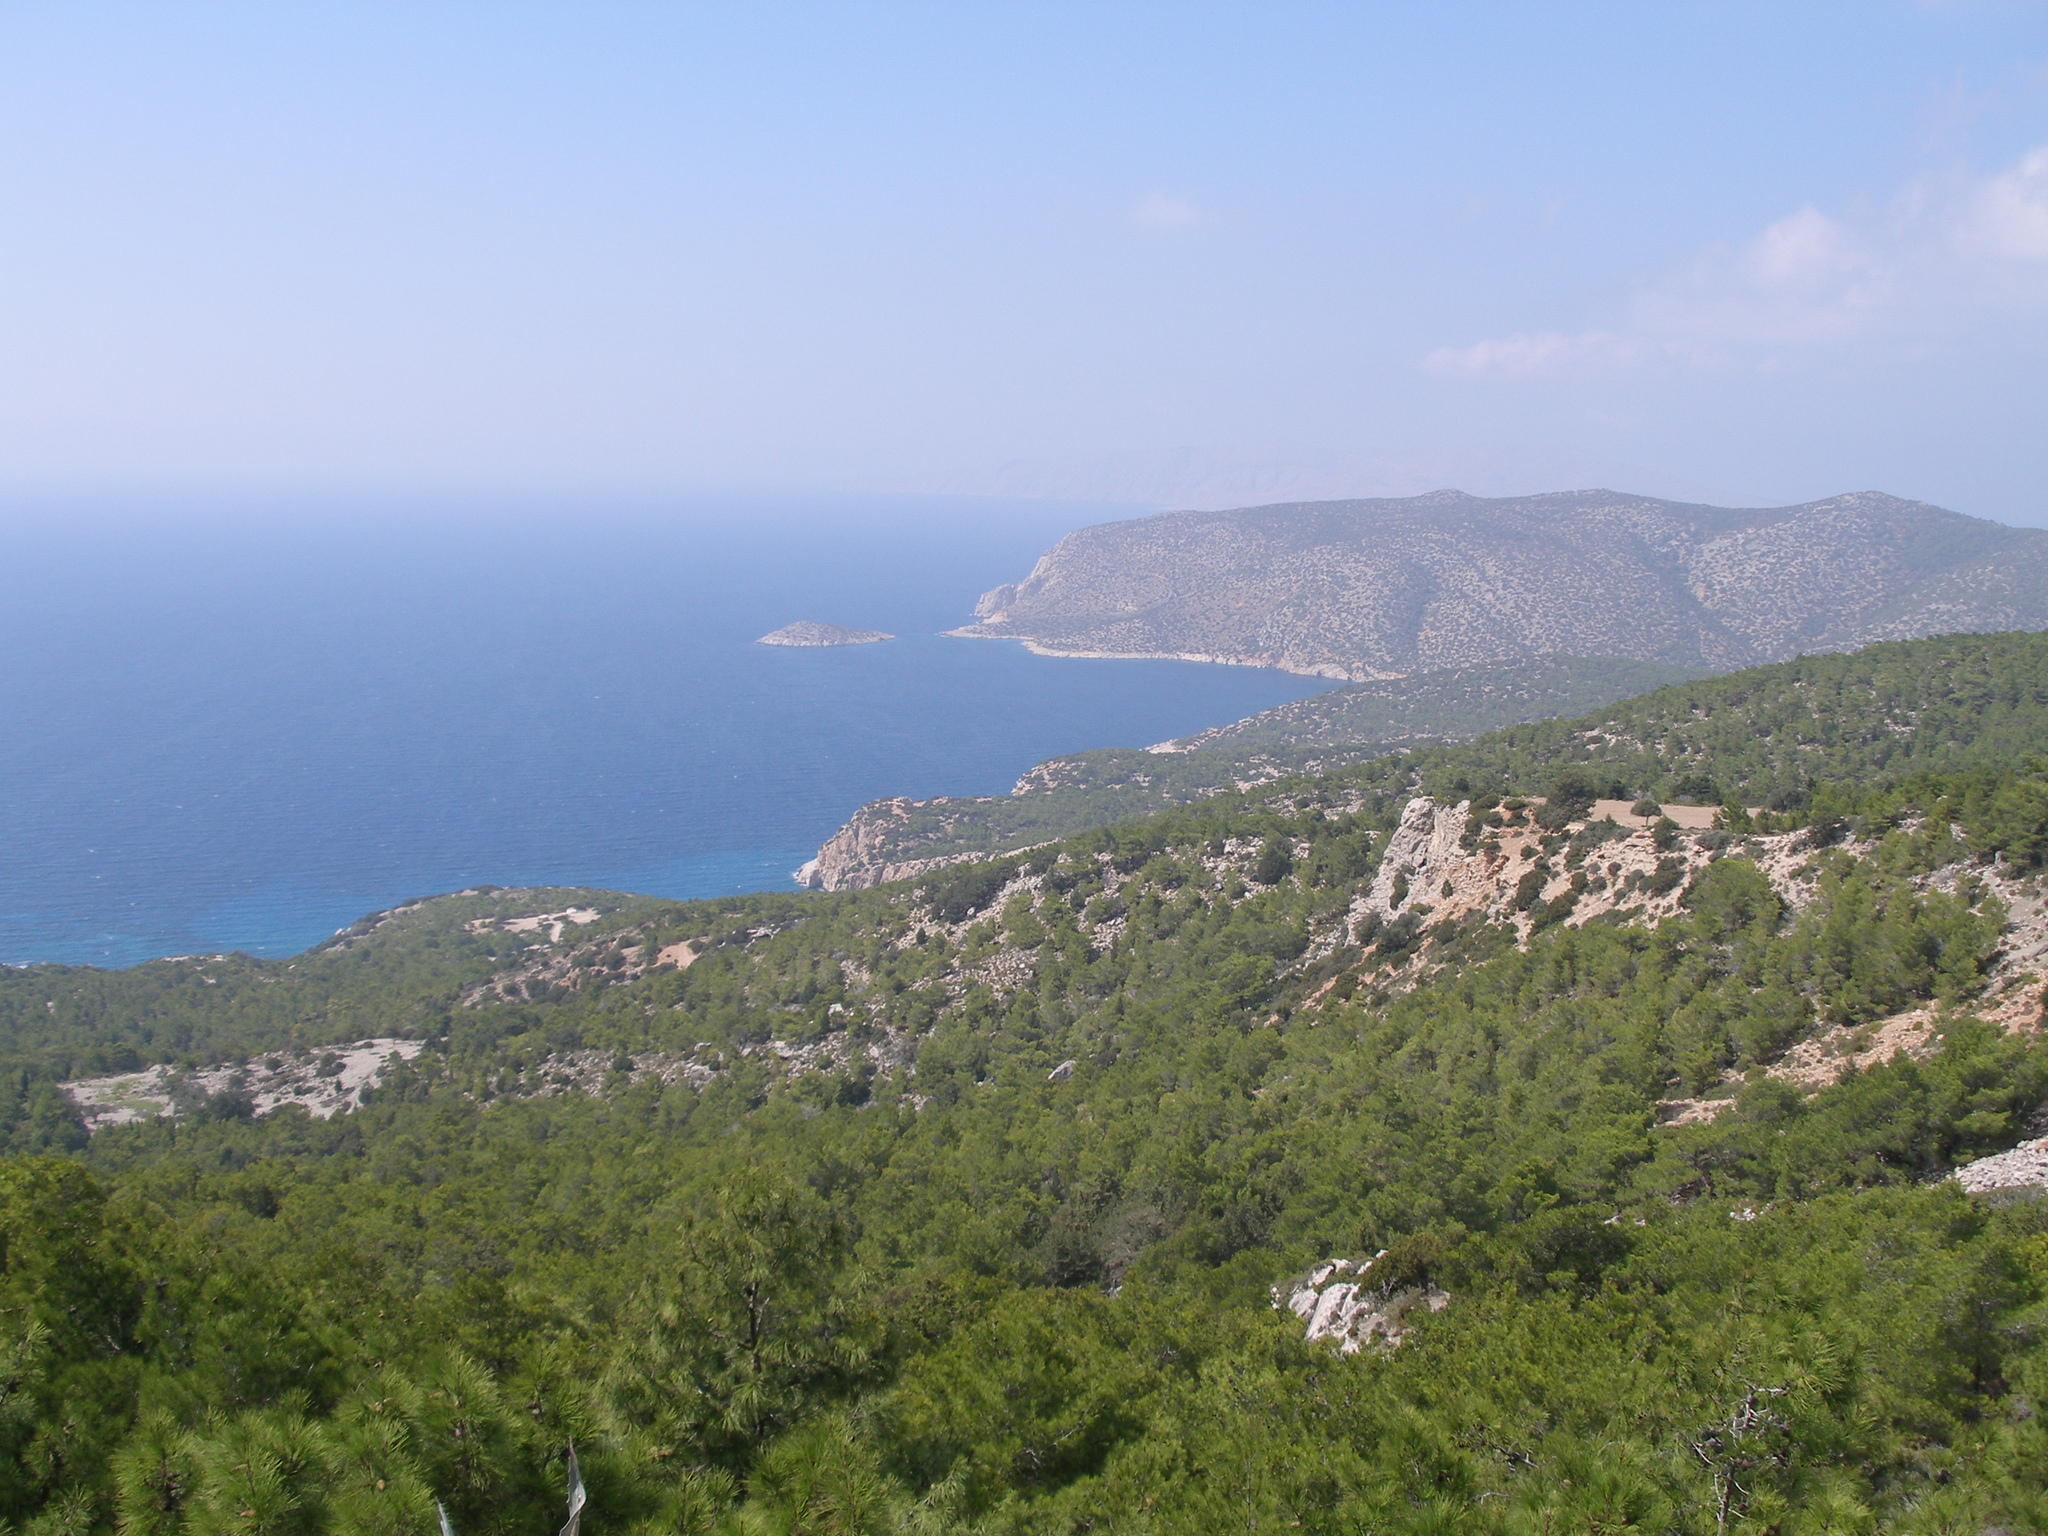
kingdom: Plantae
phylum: Tracheophyta
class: Pinopsida
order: Pinales
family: Pinaceae
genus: Pinus
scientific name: Pinus brutia
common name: Turkish pine
